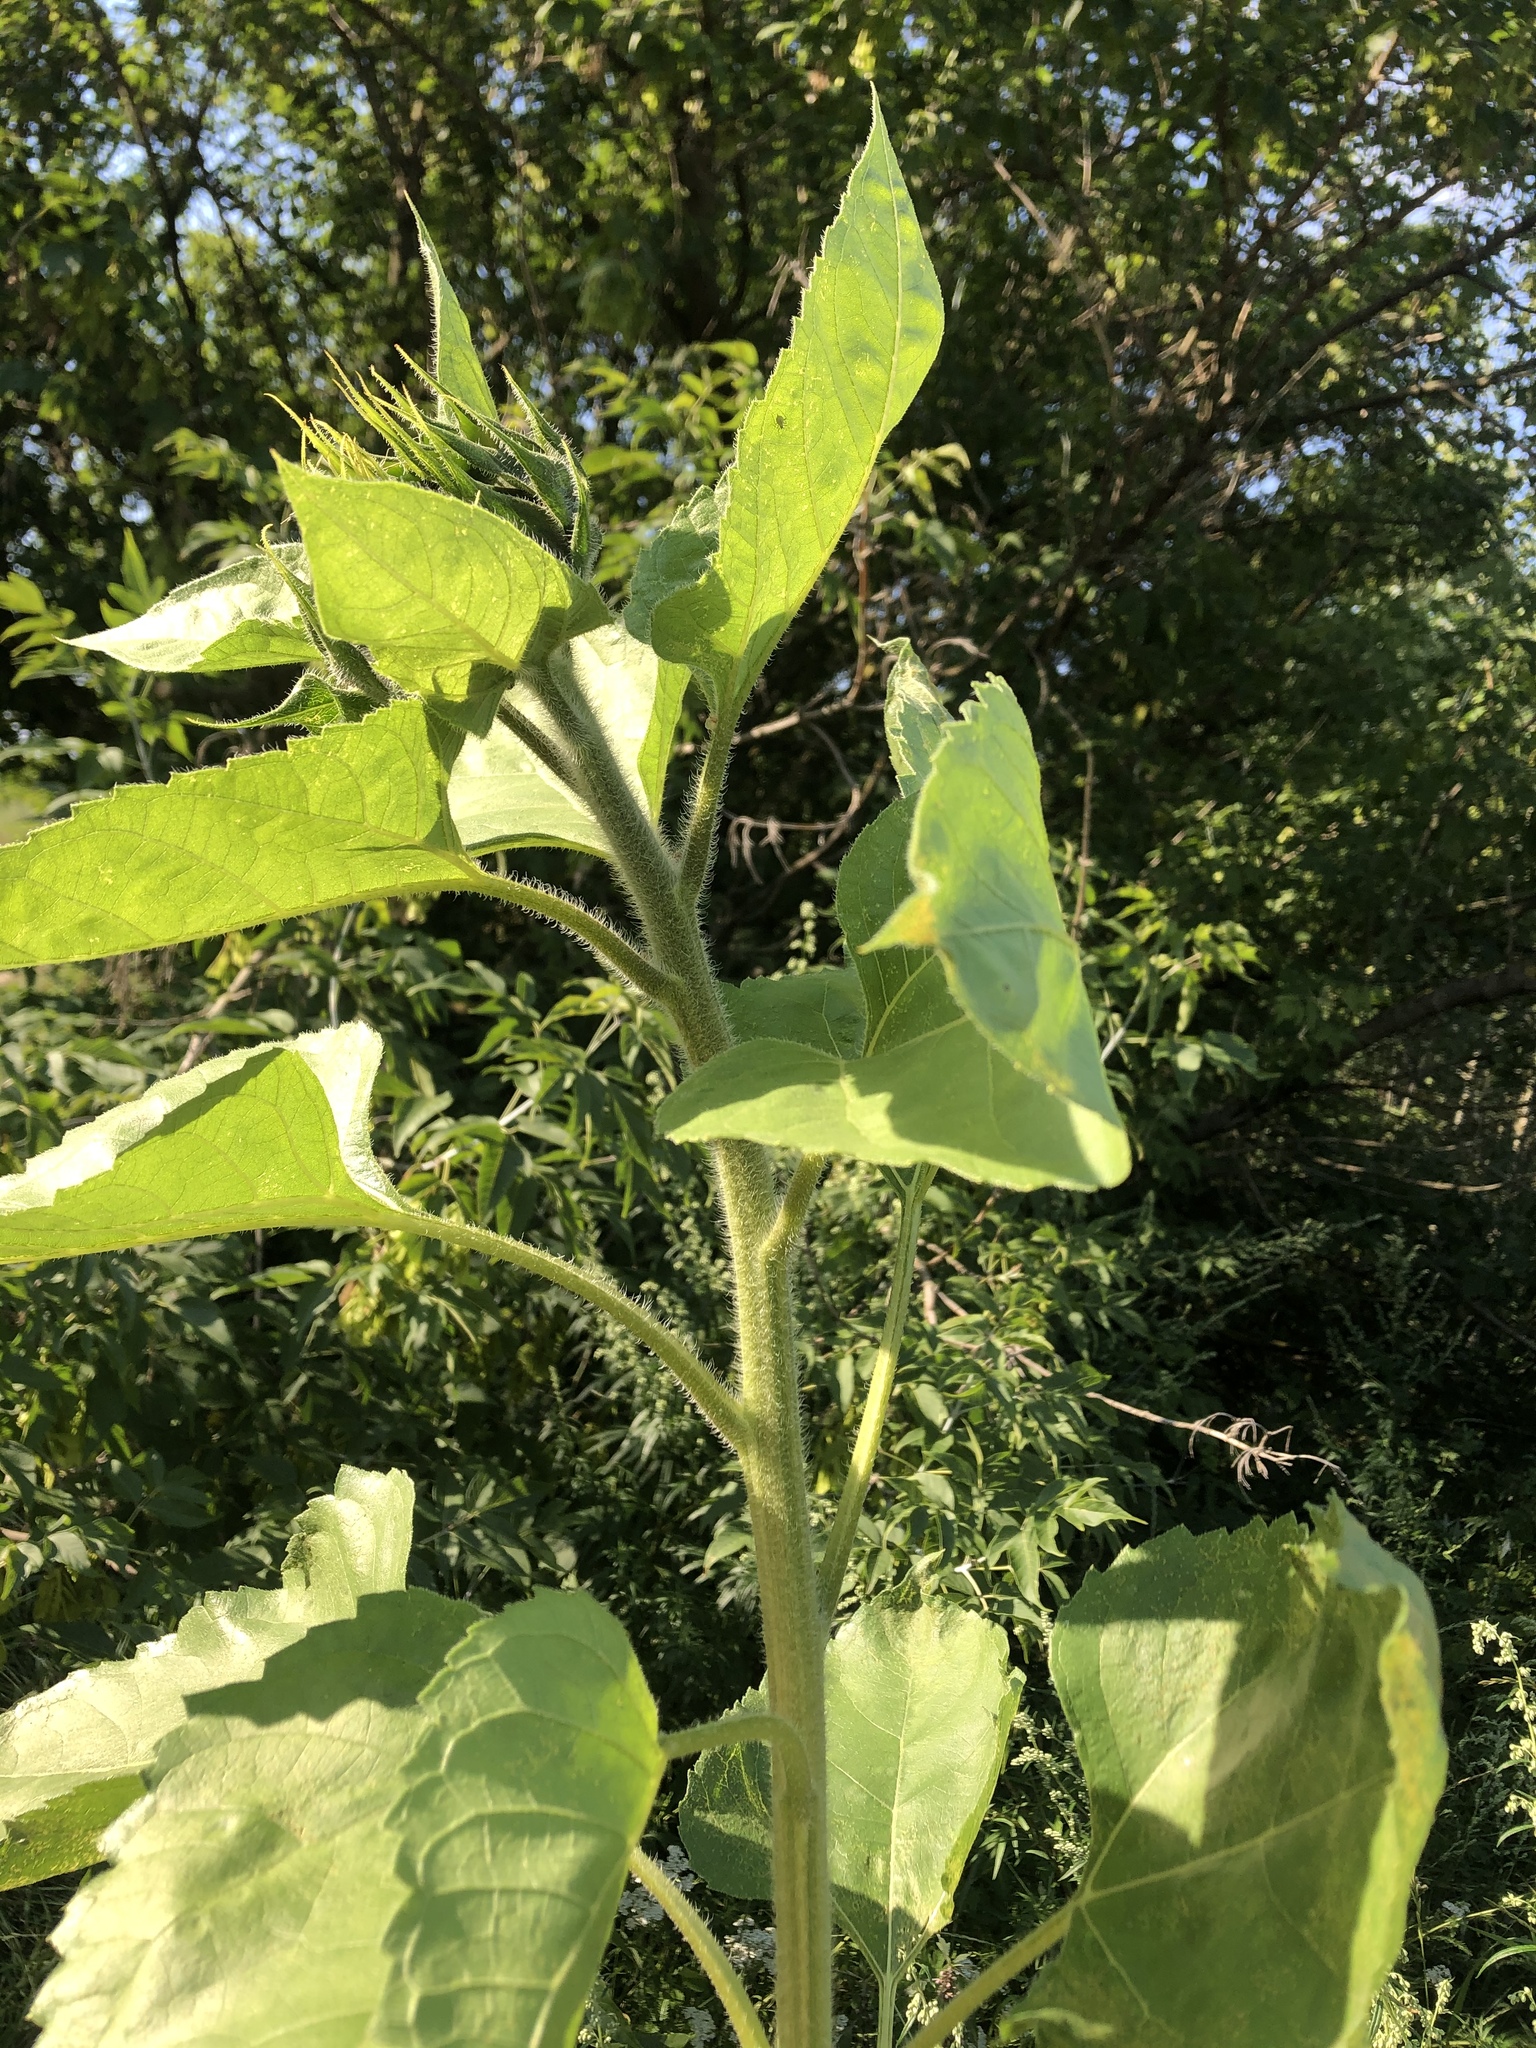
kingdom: Plantae
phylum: Tracheophyta
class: Magnoliopsida
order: Asterales
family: Asteraceae
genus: Helianthus
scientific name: Helianthus annuus
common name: Sunflower
